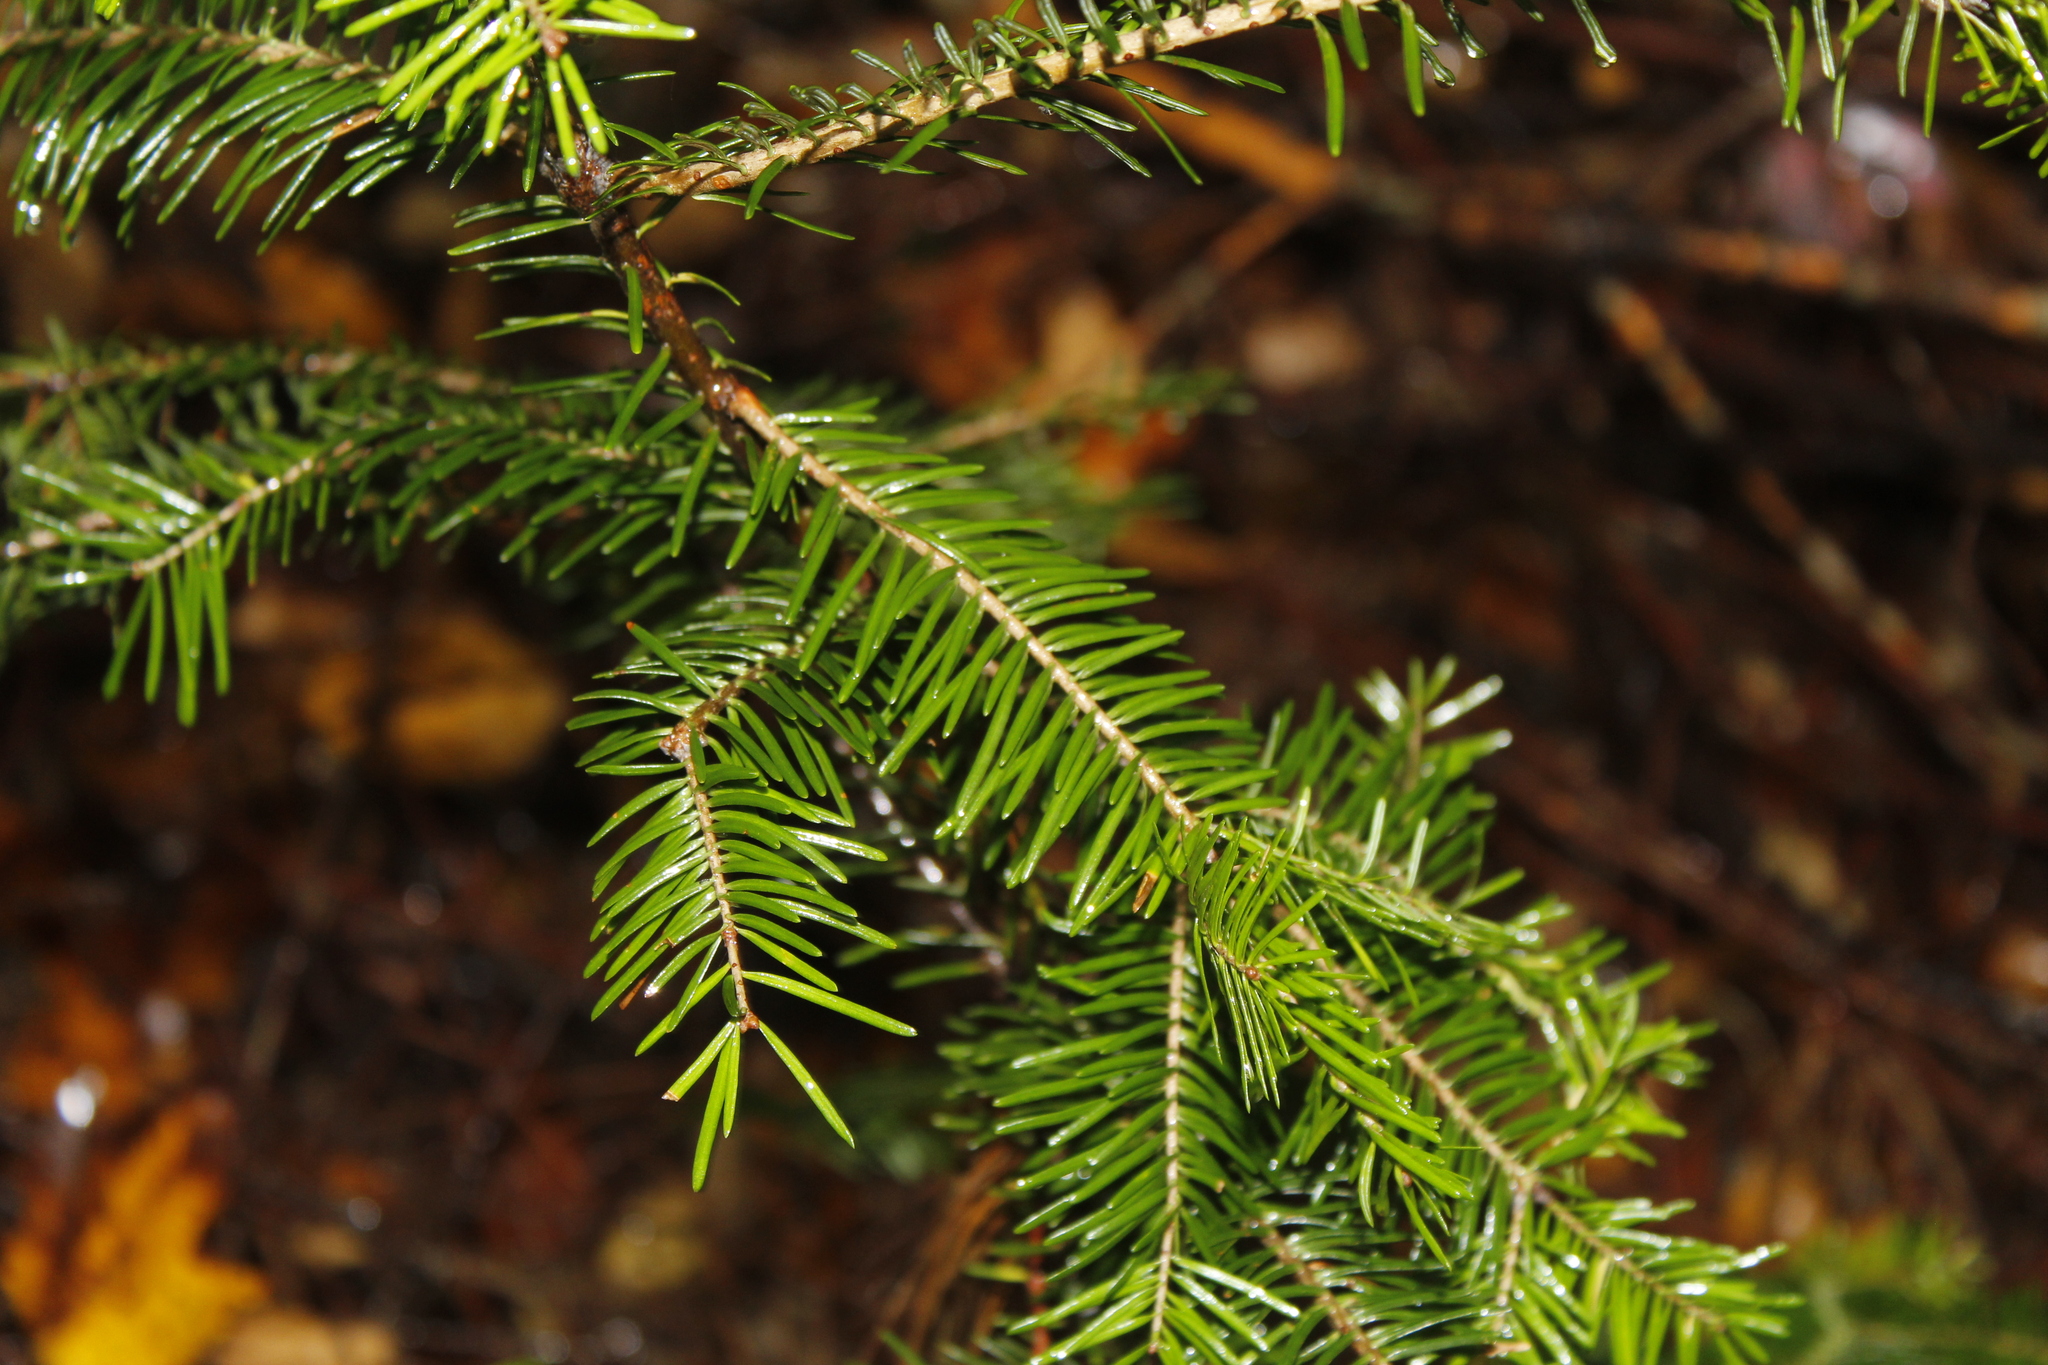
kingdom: Plantae
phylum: Tracheophyta
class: Pinopsida
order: Pinales
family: Pinaceae
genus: Abies
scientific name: Abies balsamea
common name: Balsam fir
